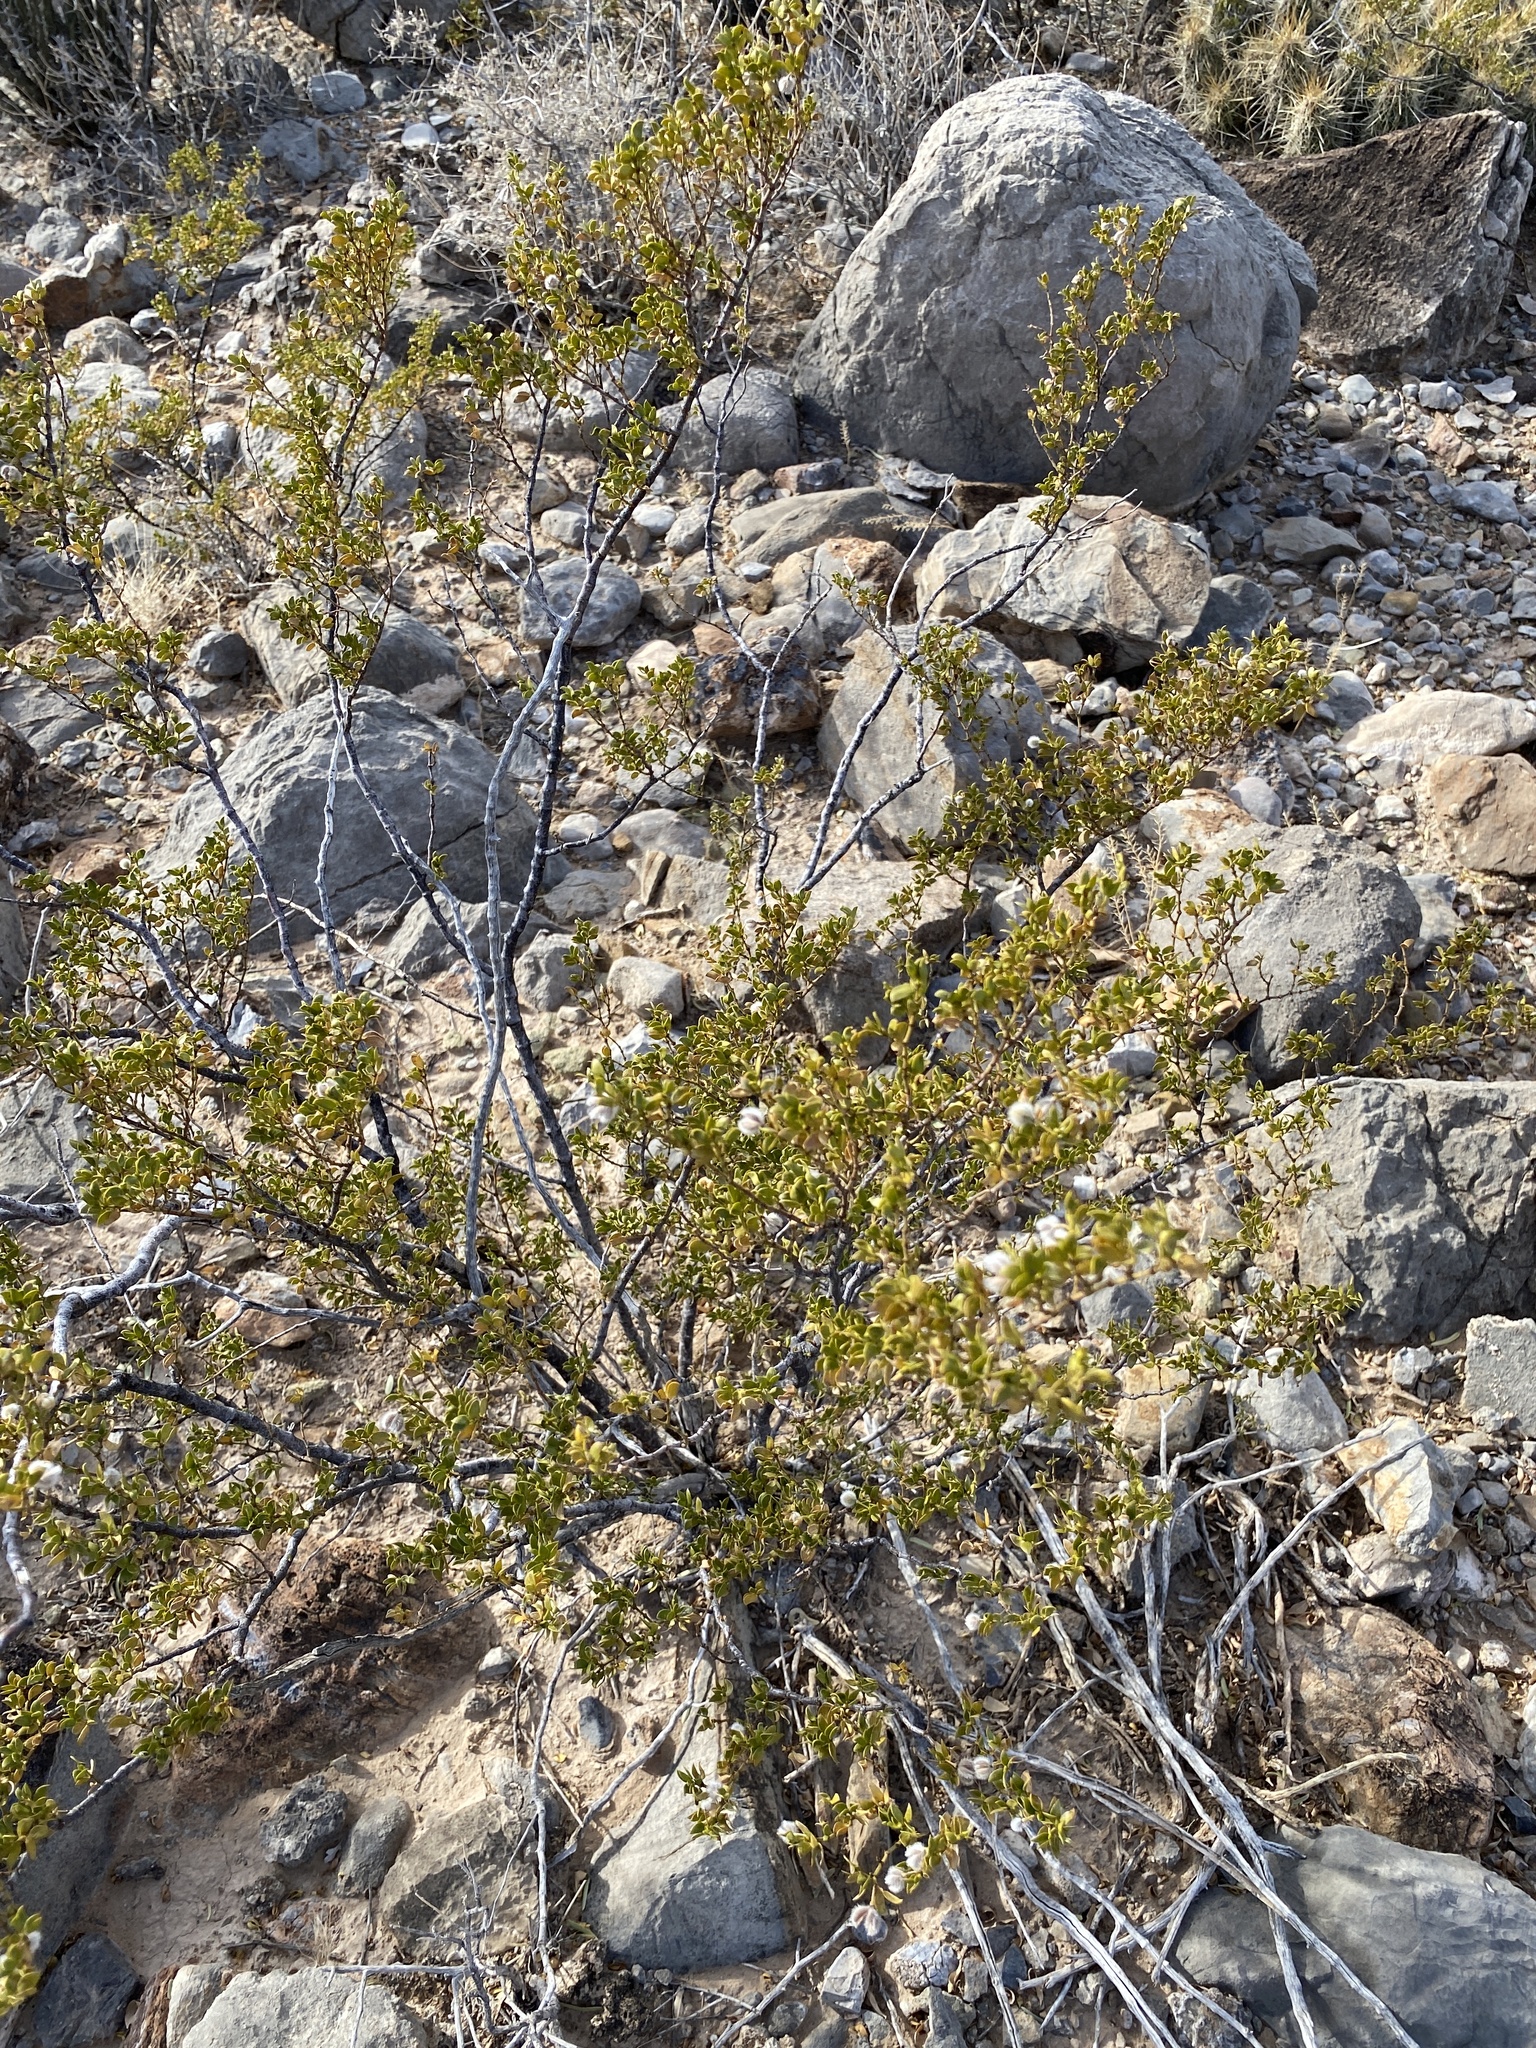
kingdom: Plantae
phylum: Tracheophyta
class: Magnoliopsida
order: Zygophyllales
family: Zygophyllaceae
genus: Larrea
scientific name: Larrea tridentata
